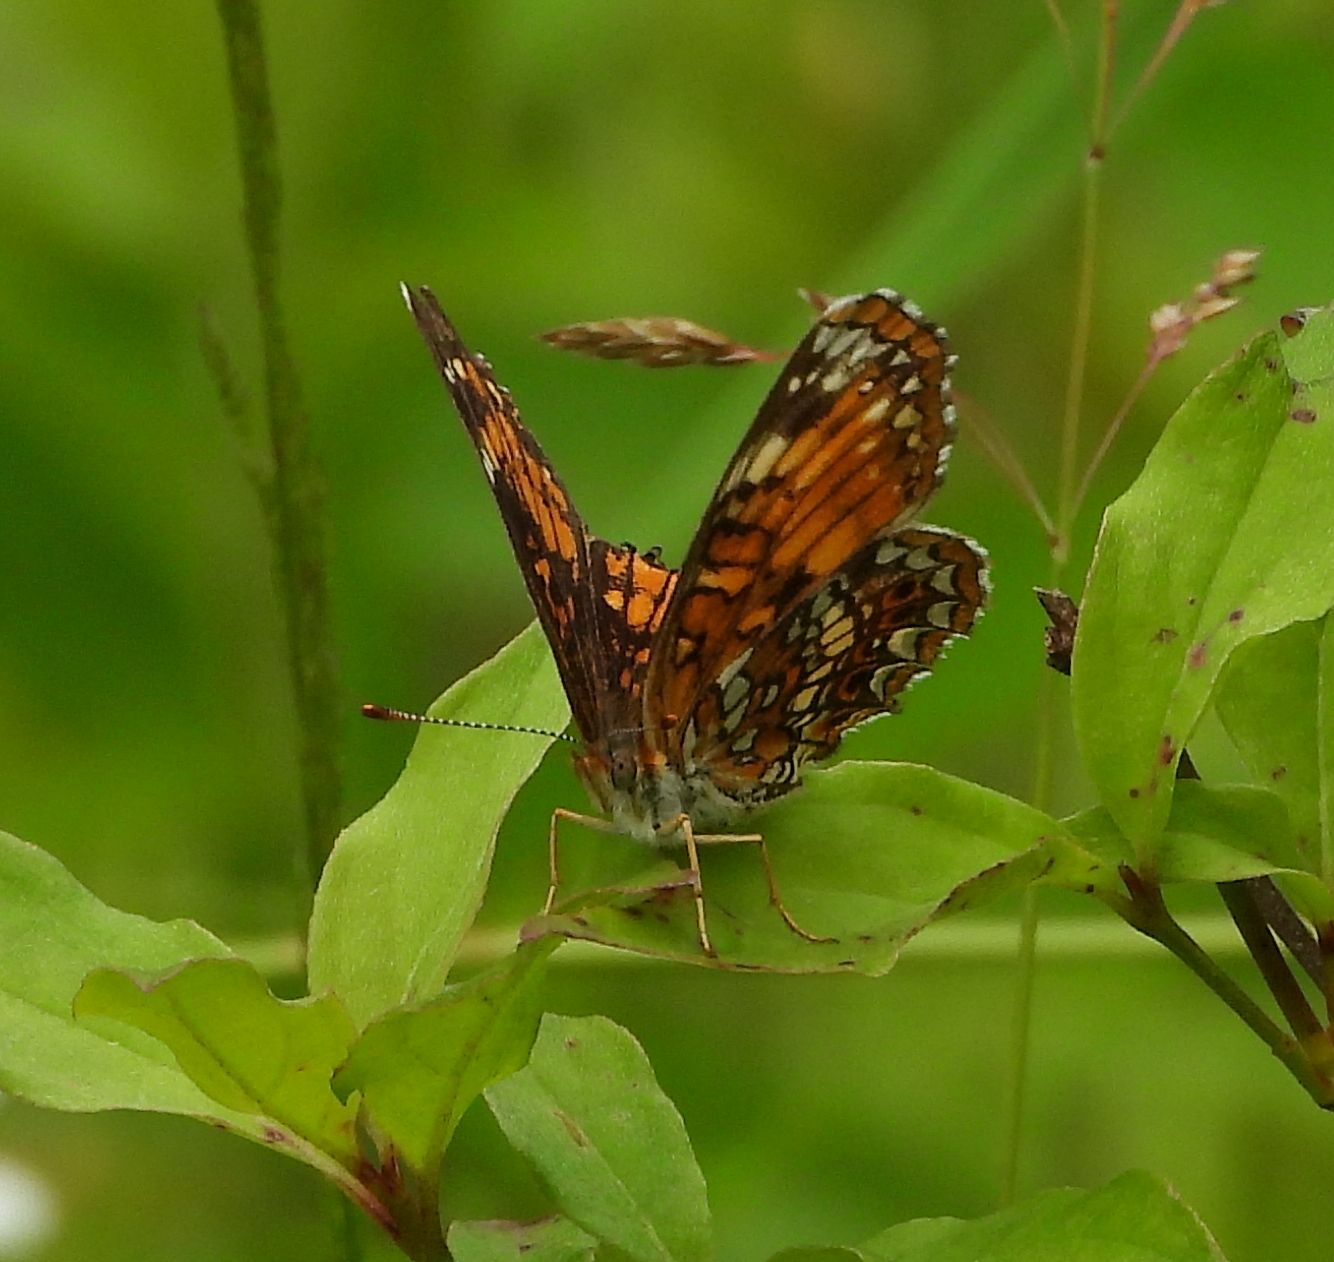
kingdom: Animalia
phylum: Arthropoda
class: Insecta
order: Lepidoptera
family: Nymphalidae
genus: Chlosyne
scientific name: Chlosyne harrisii
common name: Harris's checkerspot
